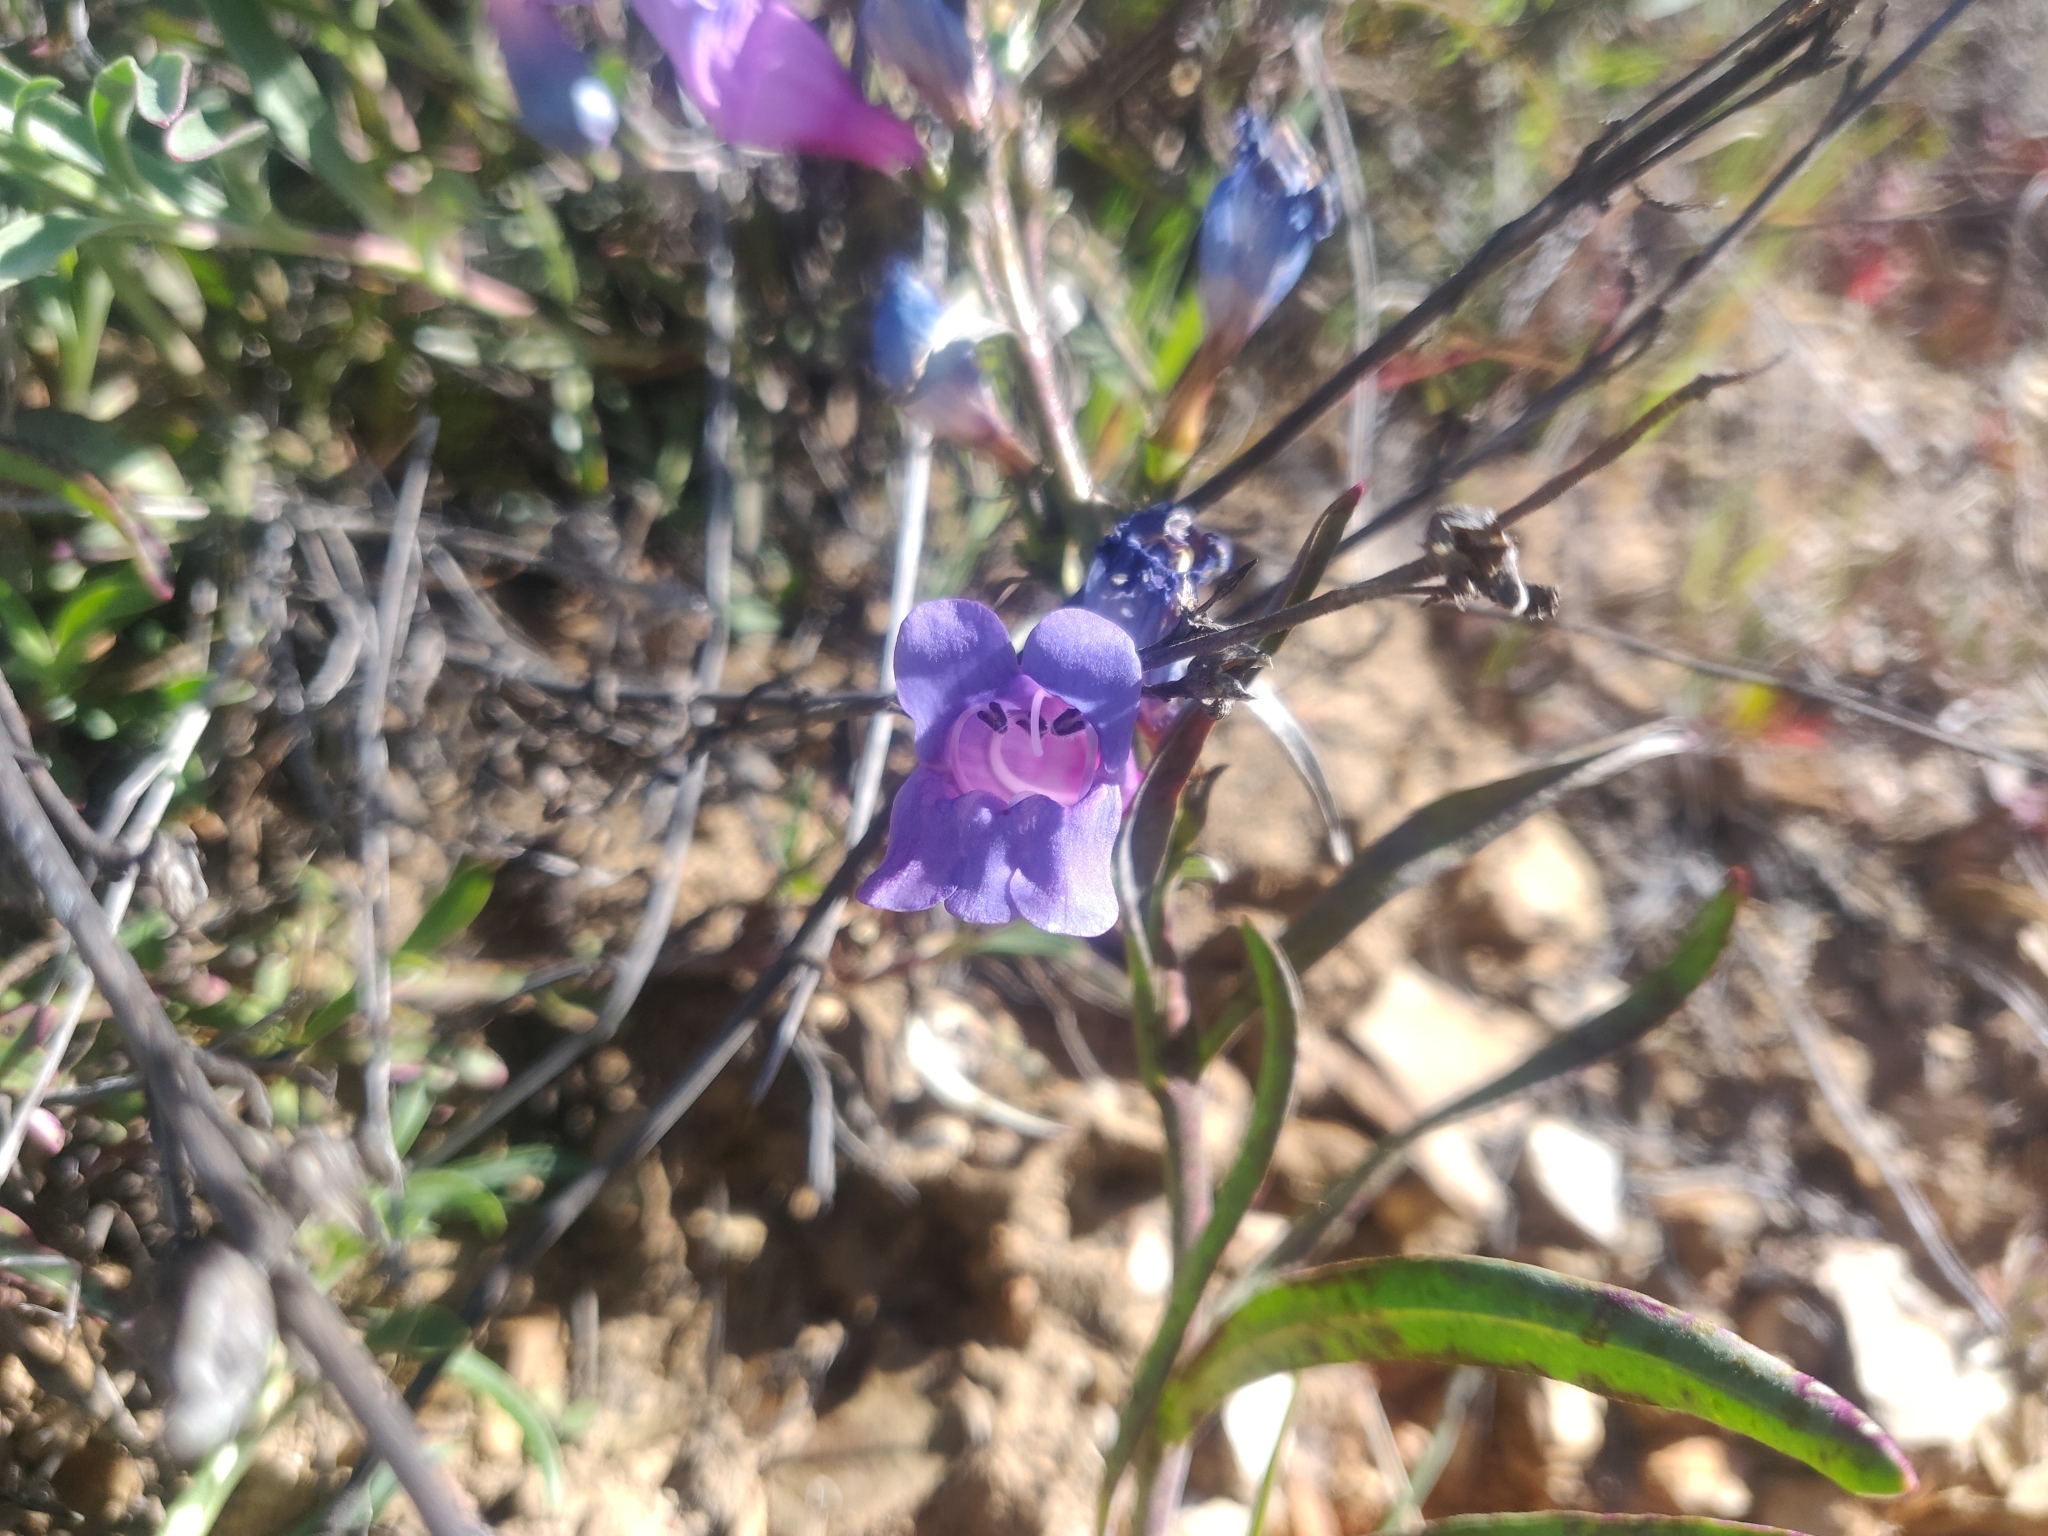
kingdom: Plantae
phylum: Tracheophyta
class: Magnoliopsida
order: Lamiales
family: Plantaginaceae
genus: Penstemon
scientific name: Penstemon heterophyllus
